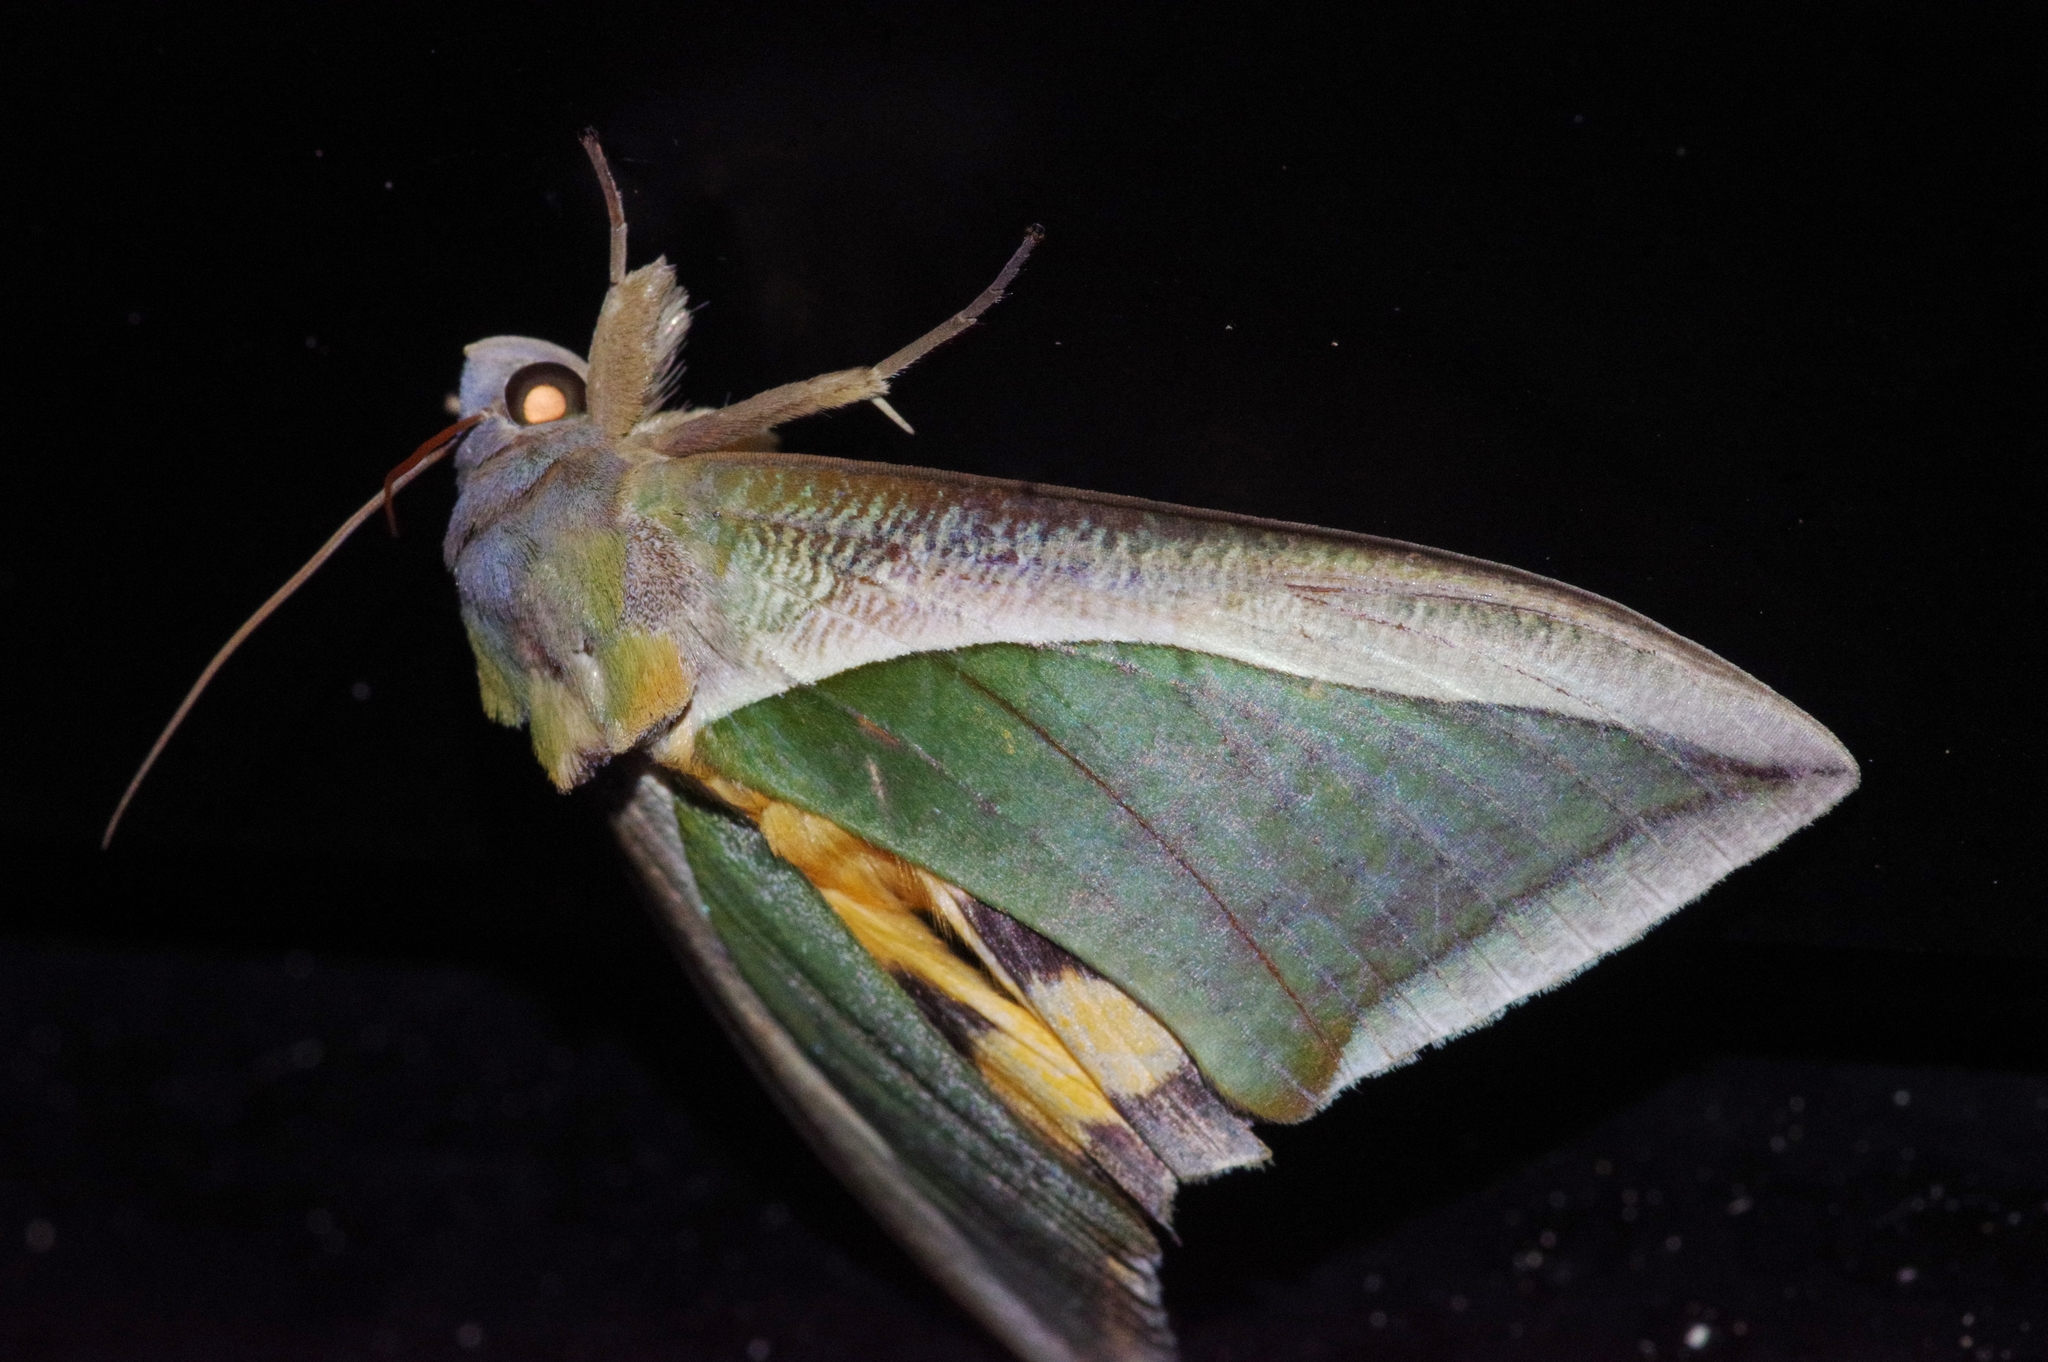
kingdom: Animalia
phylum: Arthropoda
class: Insecta
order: Lepidoptera
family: Erebidae
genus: Eudocima
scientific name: Eudocima salaminia
